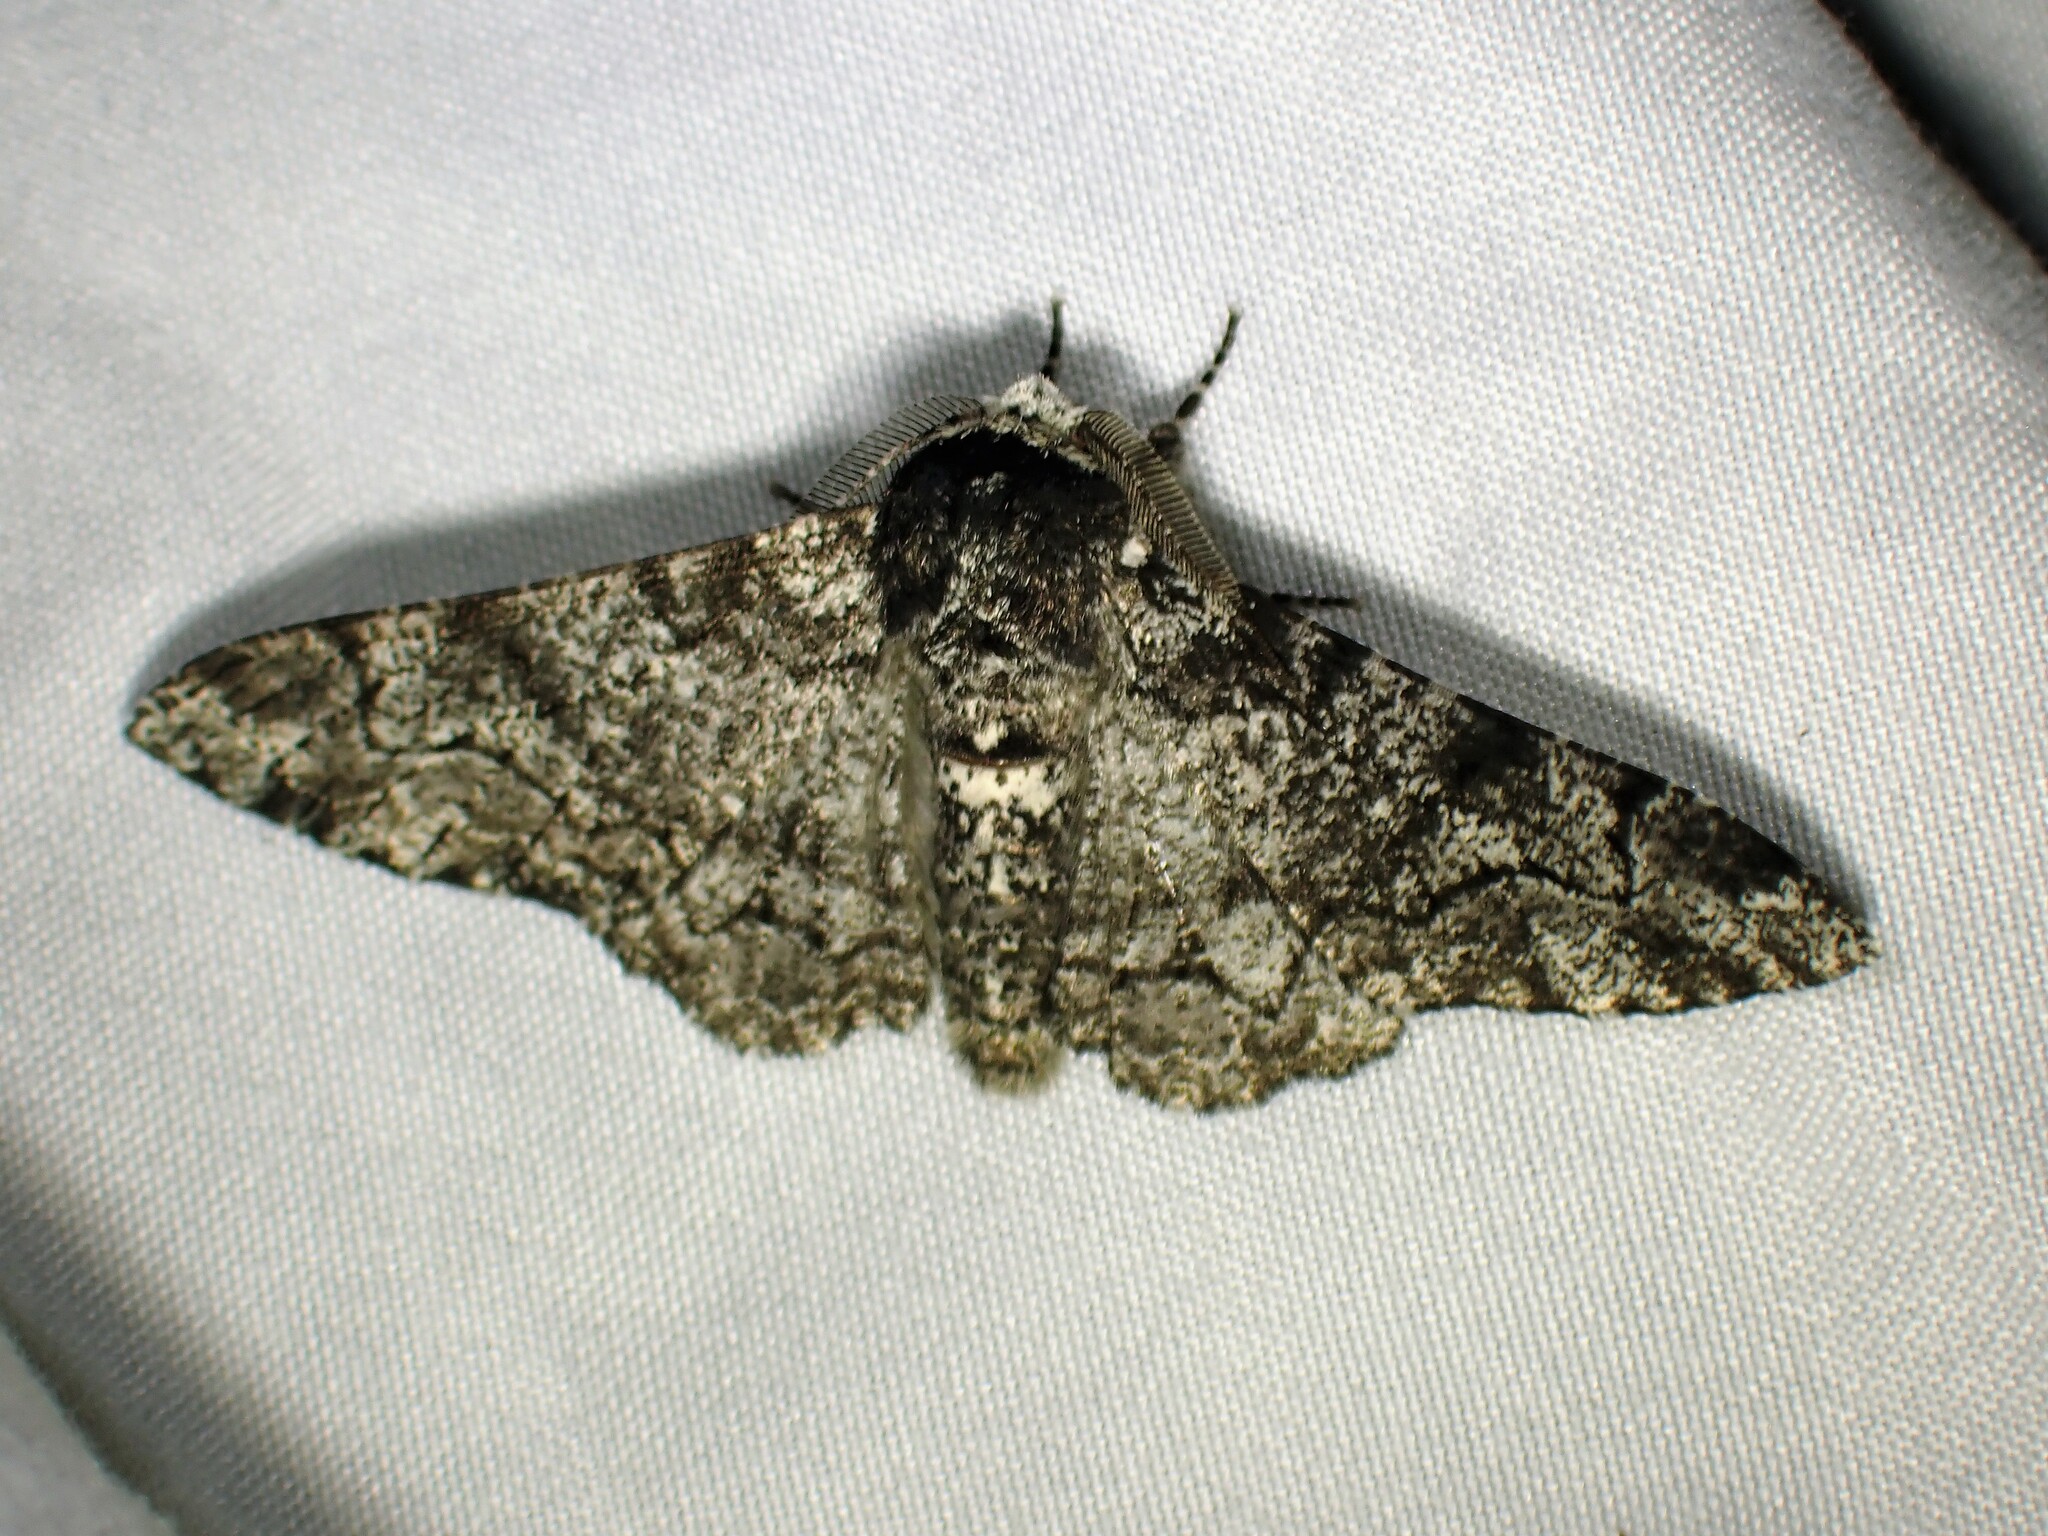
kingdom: Animalia
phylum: Arthropoda
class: Insecta
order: Lepidoptera
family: Geometridae
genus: Biston
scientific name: Biston betularia
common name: Peppered moth
